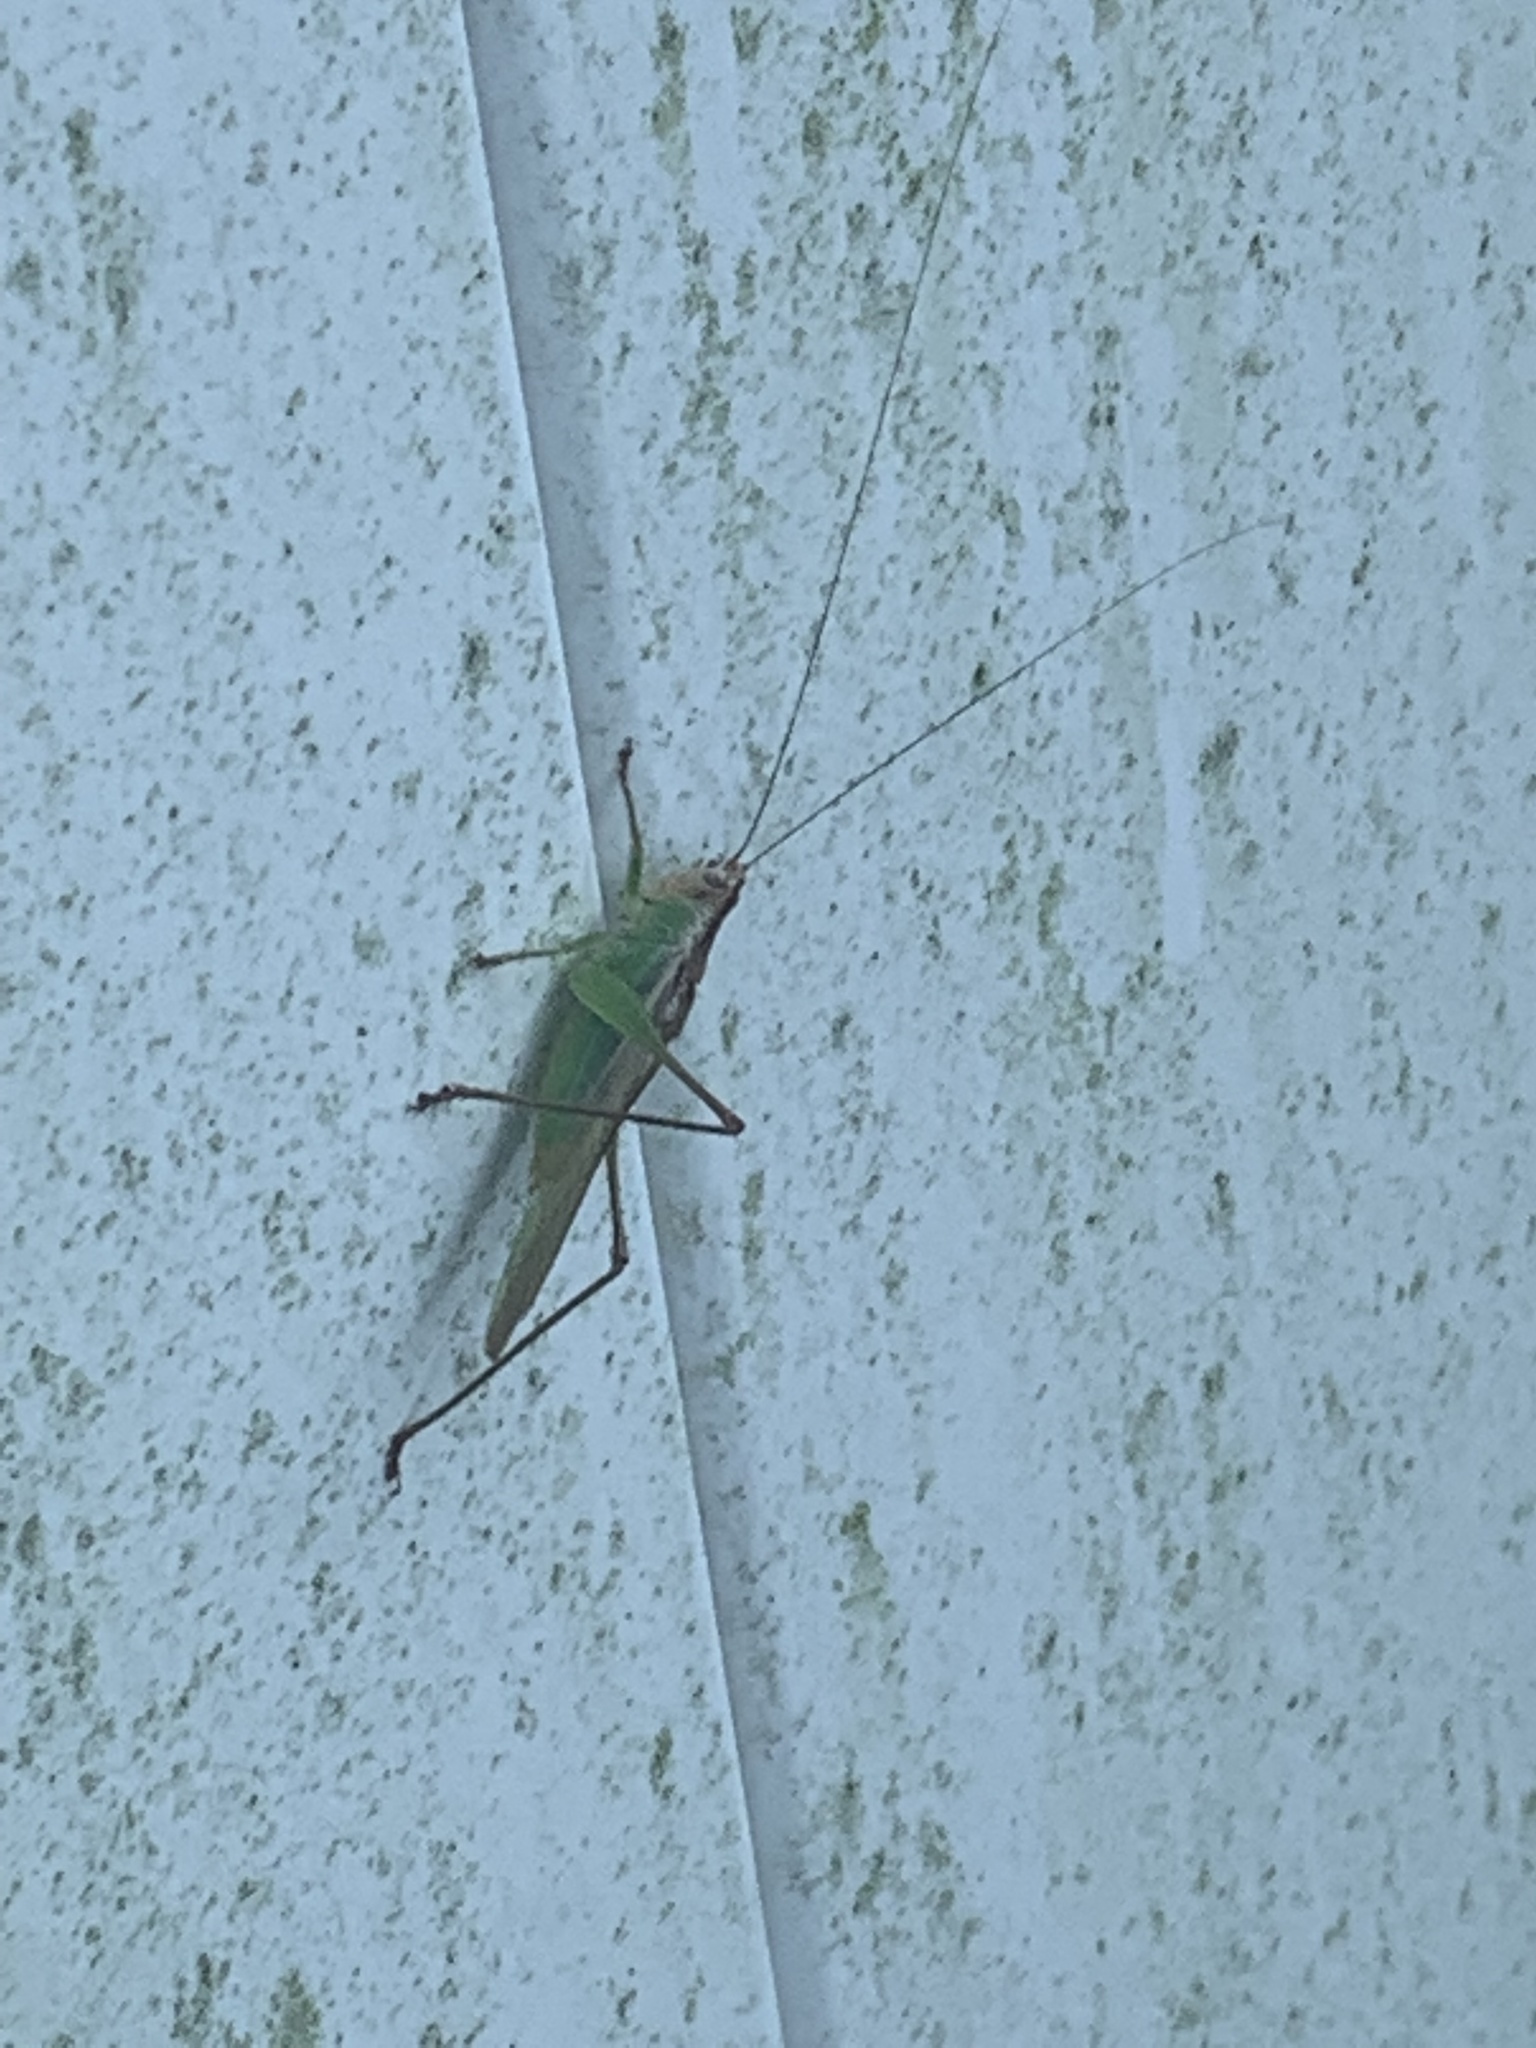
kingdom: Animalia
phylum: Arthropoda
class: Insecta
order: Orthoptera
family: Tettigoniidae
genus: Orchelimum
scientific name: Orchelimum pulchellum
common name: Handsome meadow katydid
